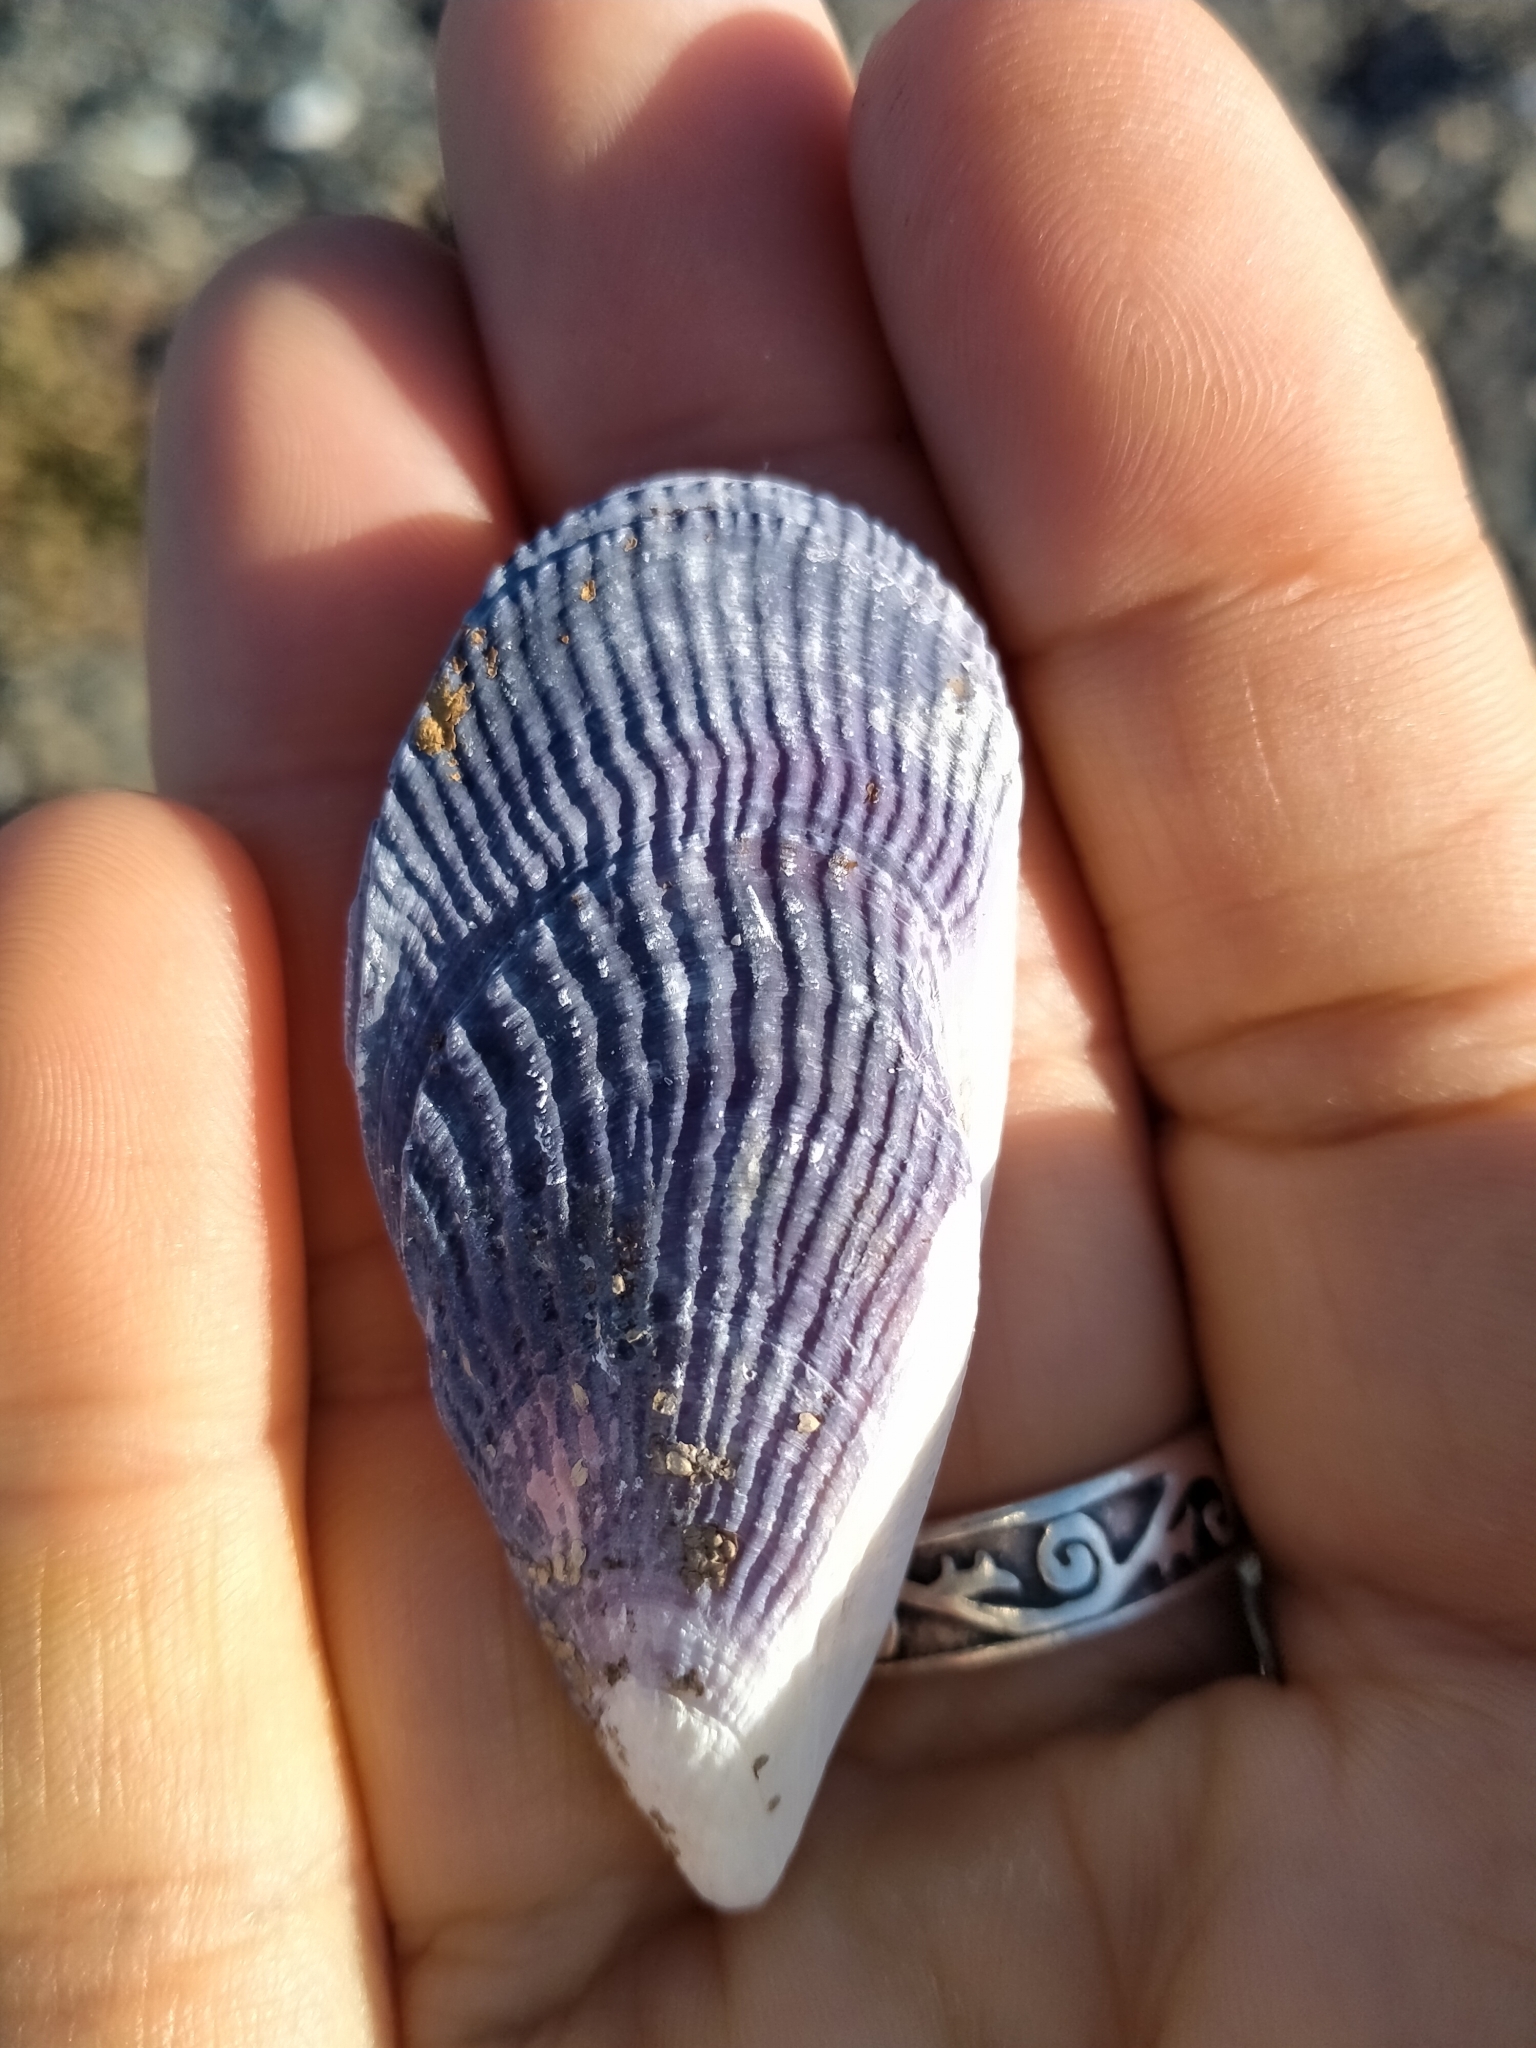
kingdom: Animalia
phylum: Mollusca
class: Bivalvia
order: Mytilida
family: Mytilidae
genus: Aulacomya
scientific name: Aulacomya maoriana
